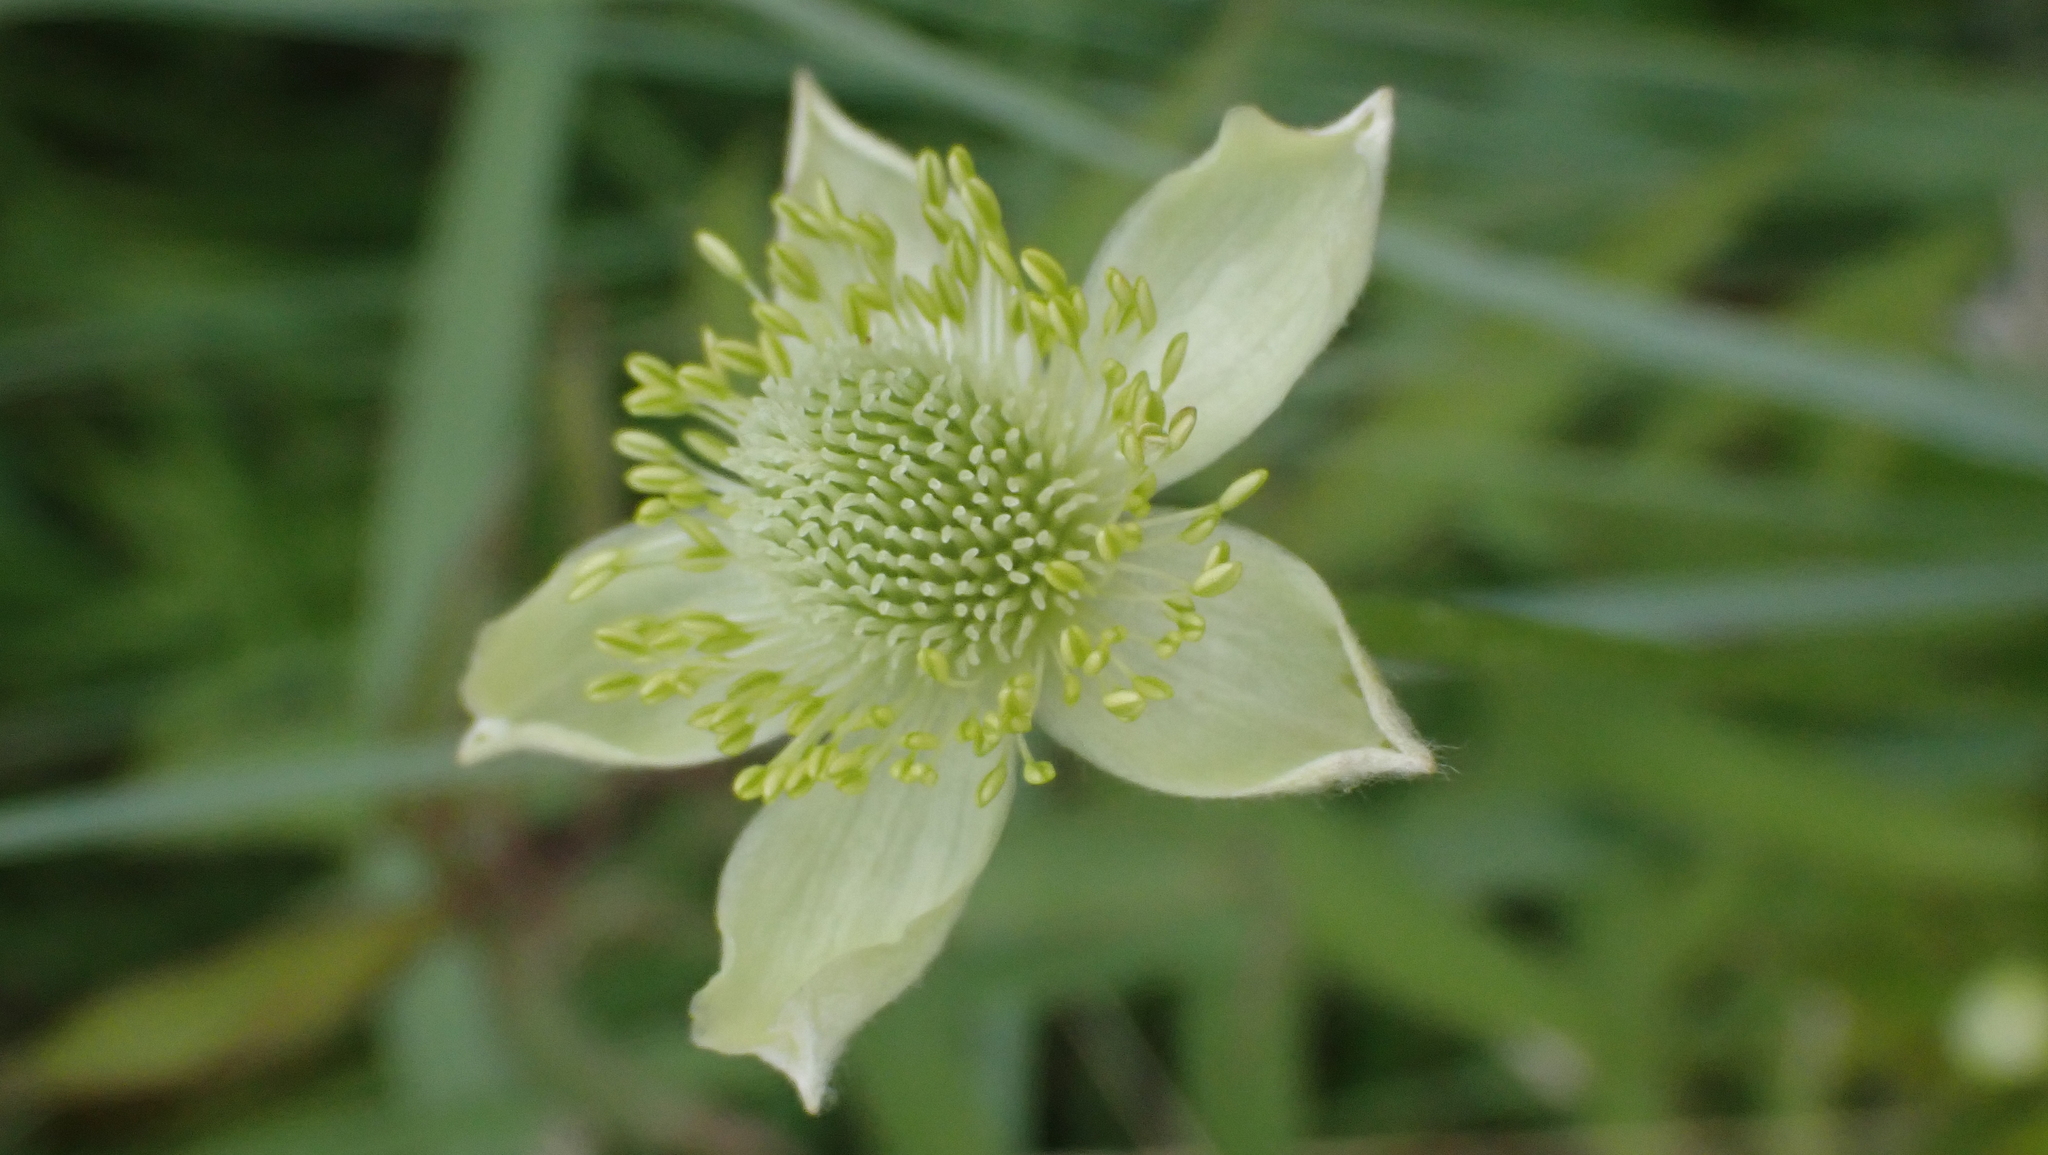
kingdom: Plantae
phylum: Tracheophyta
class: Magnoliopsida
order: Ranunculales
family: Ranunculaceae
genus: Anemone
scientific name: Anemone virginiana
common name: Tall anemone
